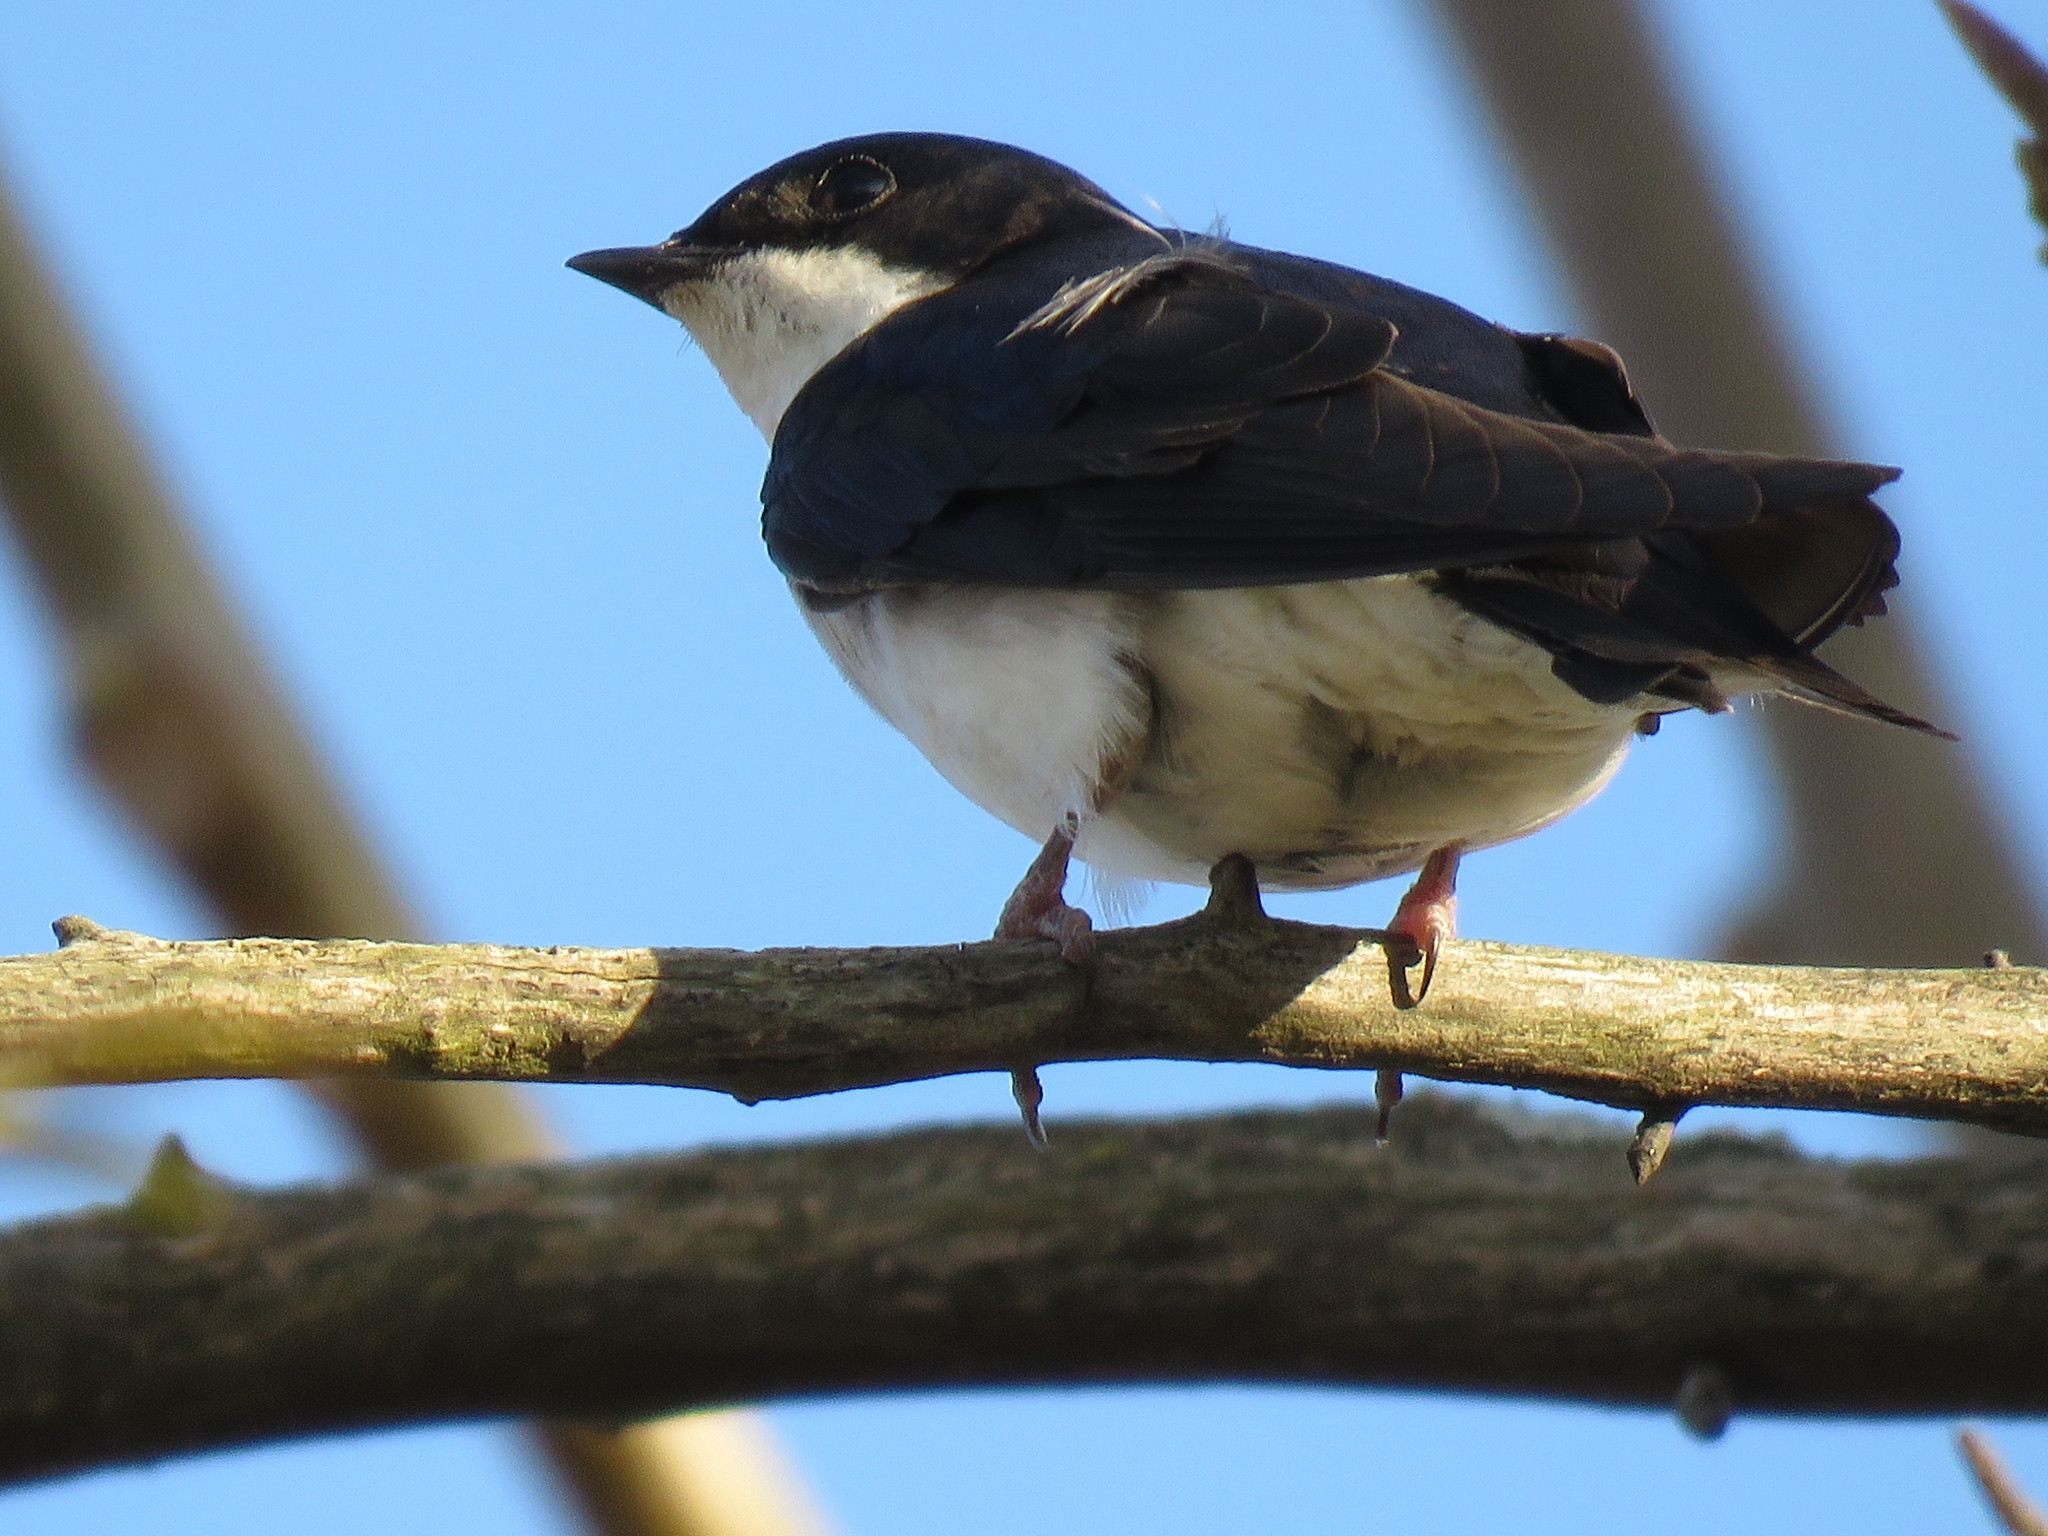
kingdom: Animalia
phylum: Chordata
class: Aves
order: Passeriformes
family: Hirundinidae
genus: Tachycineta
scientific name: Tachycineta bicolor
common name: Tree swallow
